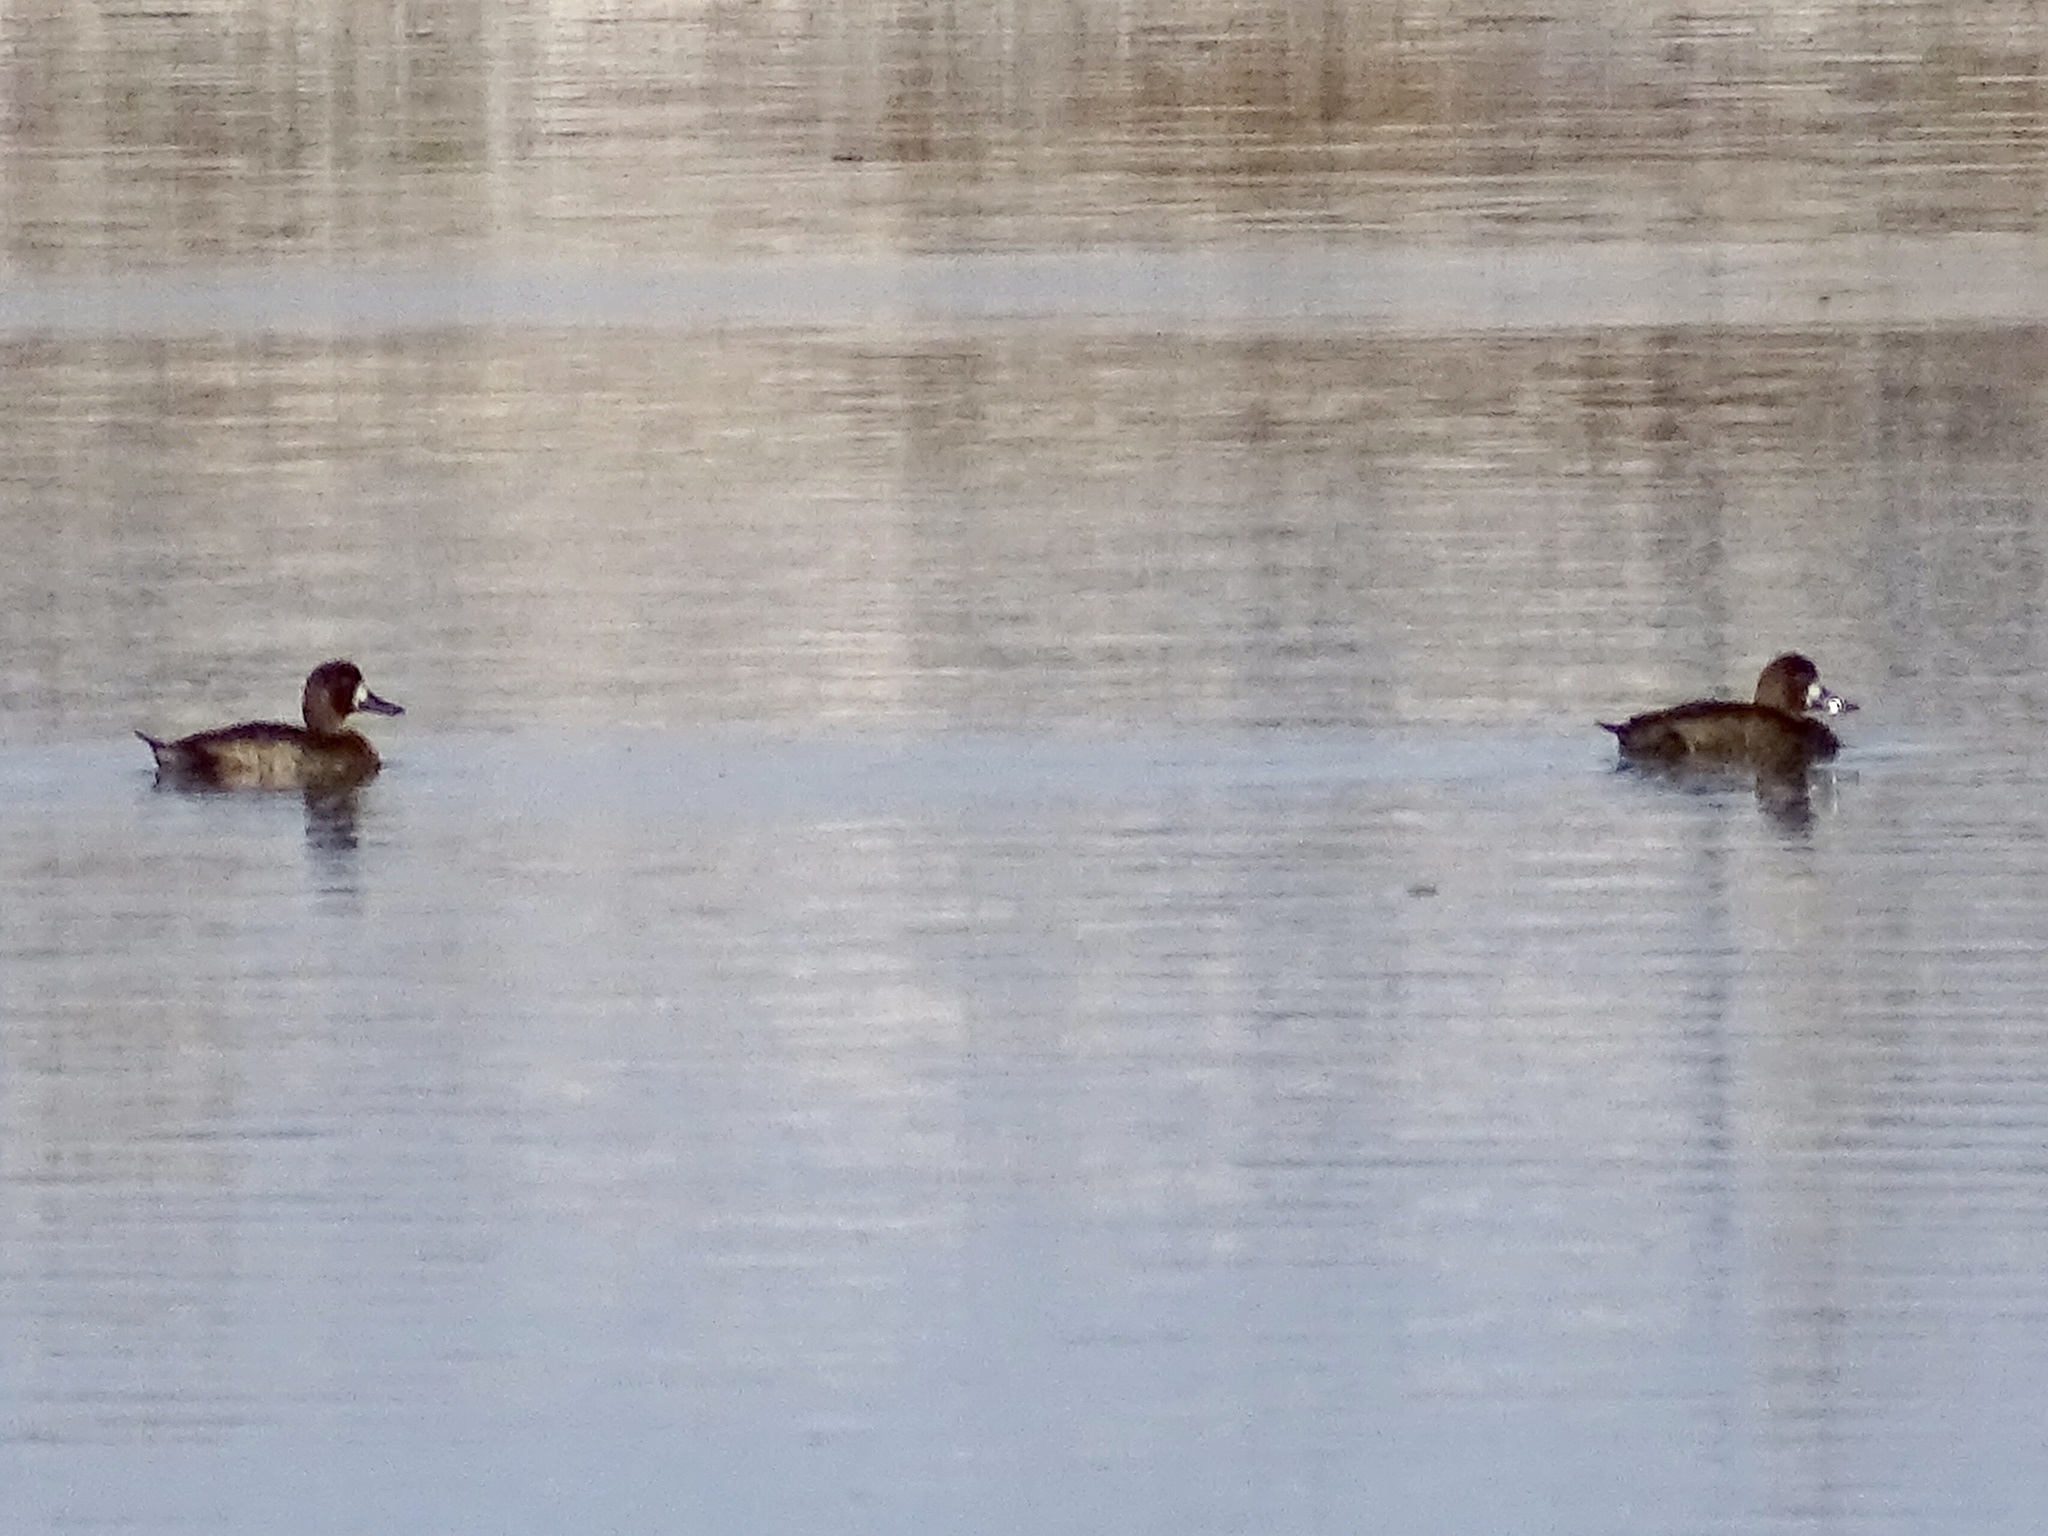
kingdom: Animalia
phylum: Chordata
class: Aves
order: Anseriformes
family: Anatidae
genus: Aythya
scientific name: Aythya marila
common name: Greater scaup
